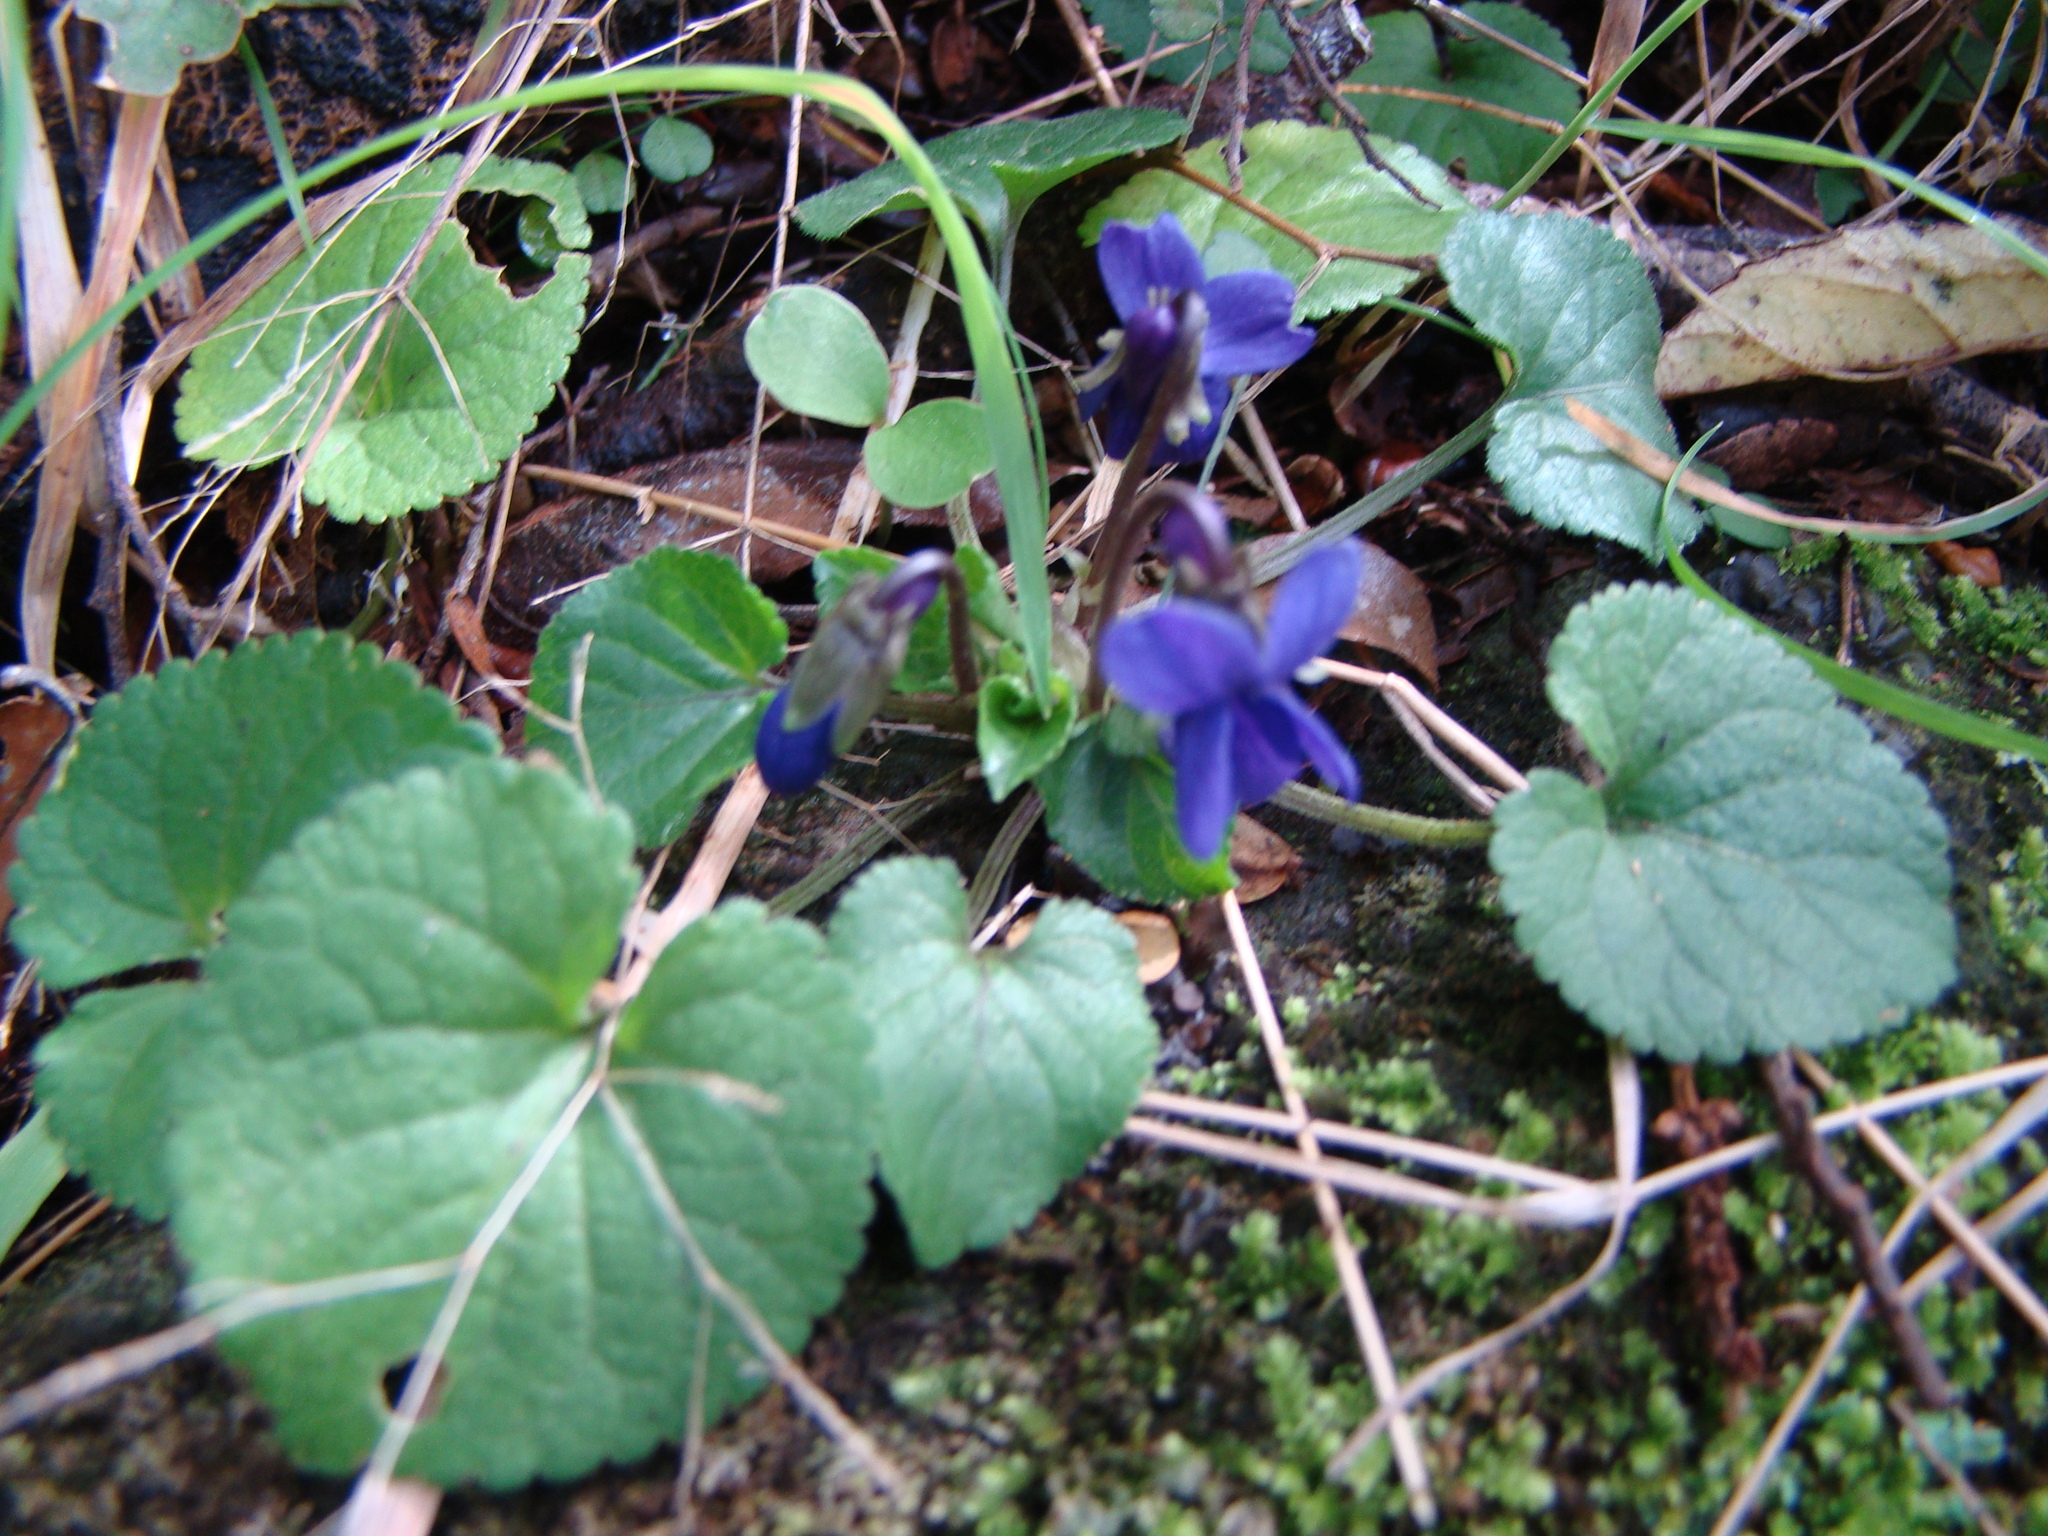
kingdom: Plantae
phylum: Tracheophyta
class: Magnoliopsida
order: Malpighiales
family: Violaceae
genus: Viola
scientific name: Viola odorata
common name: Sweet violet
